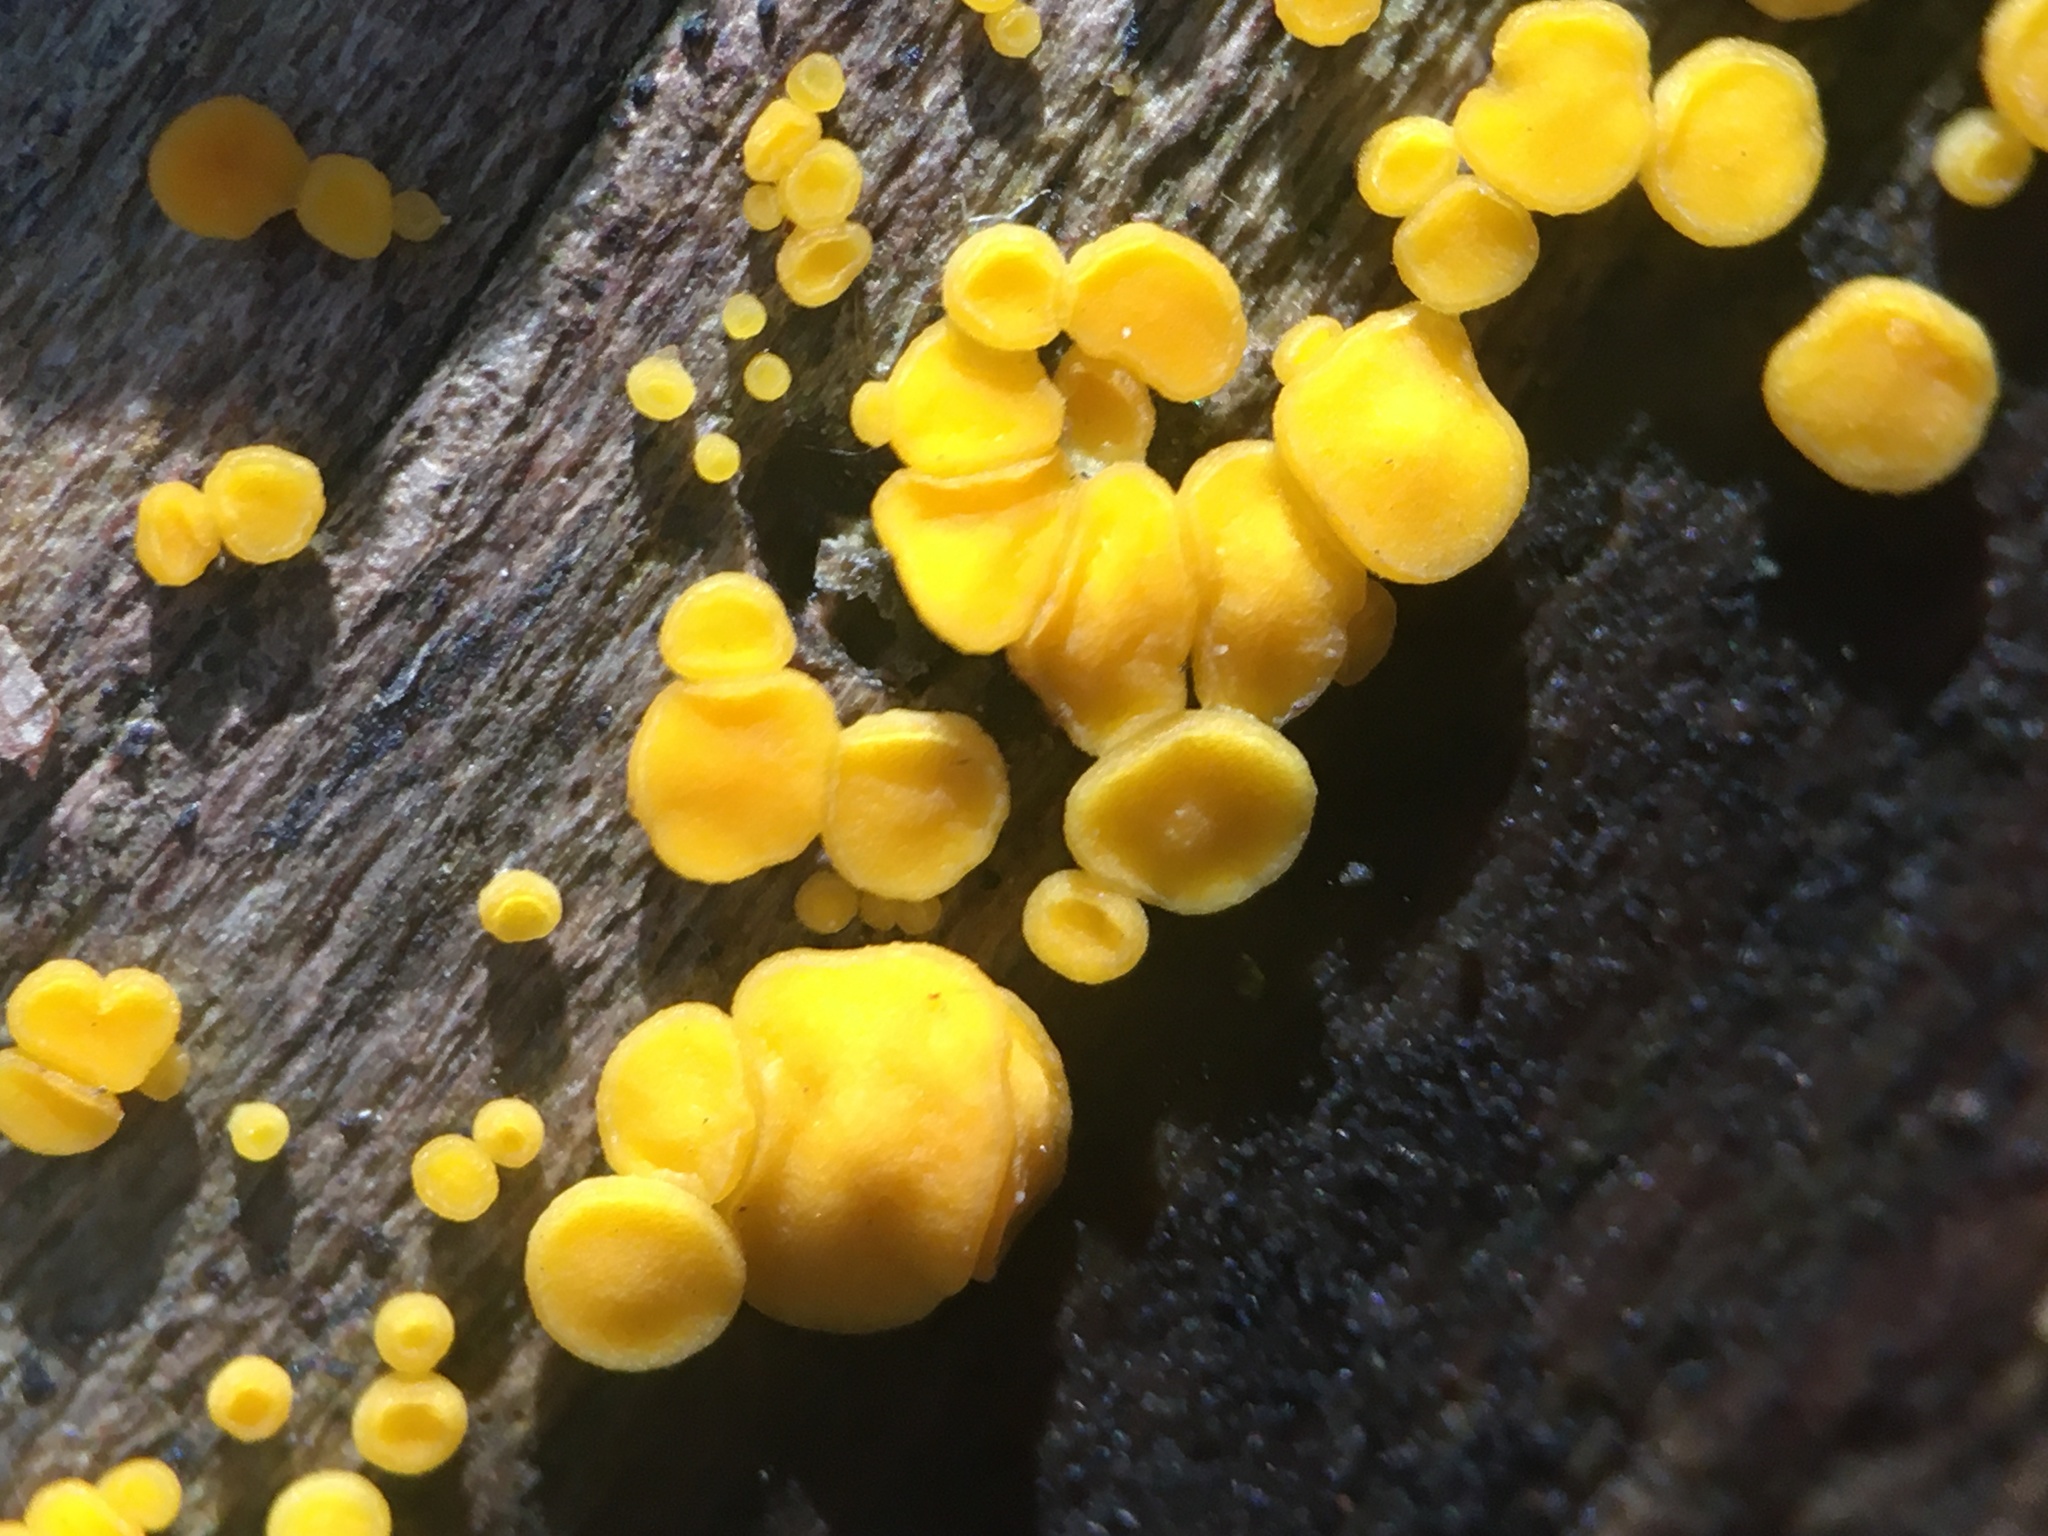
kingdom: Fungi
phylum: Ascomycota
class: Leotiomycetes
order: Helotiales
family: Pezizellaceae
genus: Calycina
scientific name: Calycina citrina
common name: Yellow fairy cups
